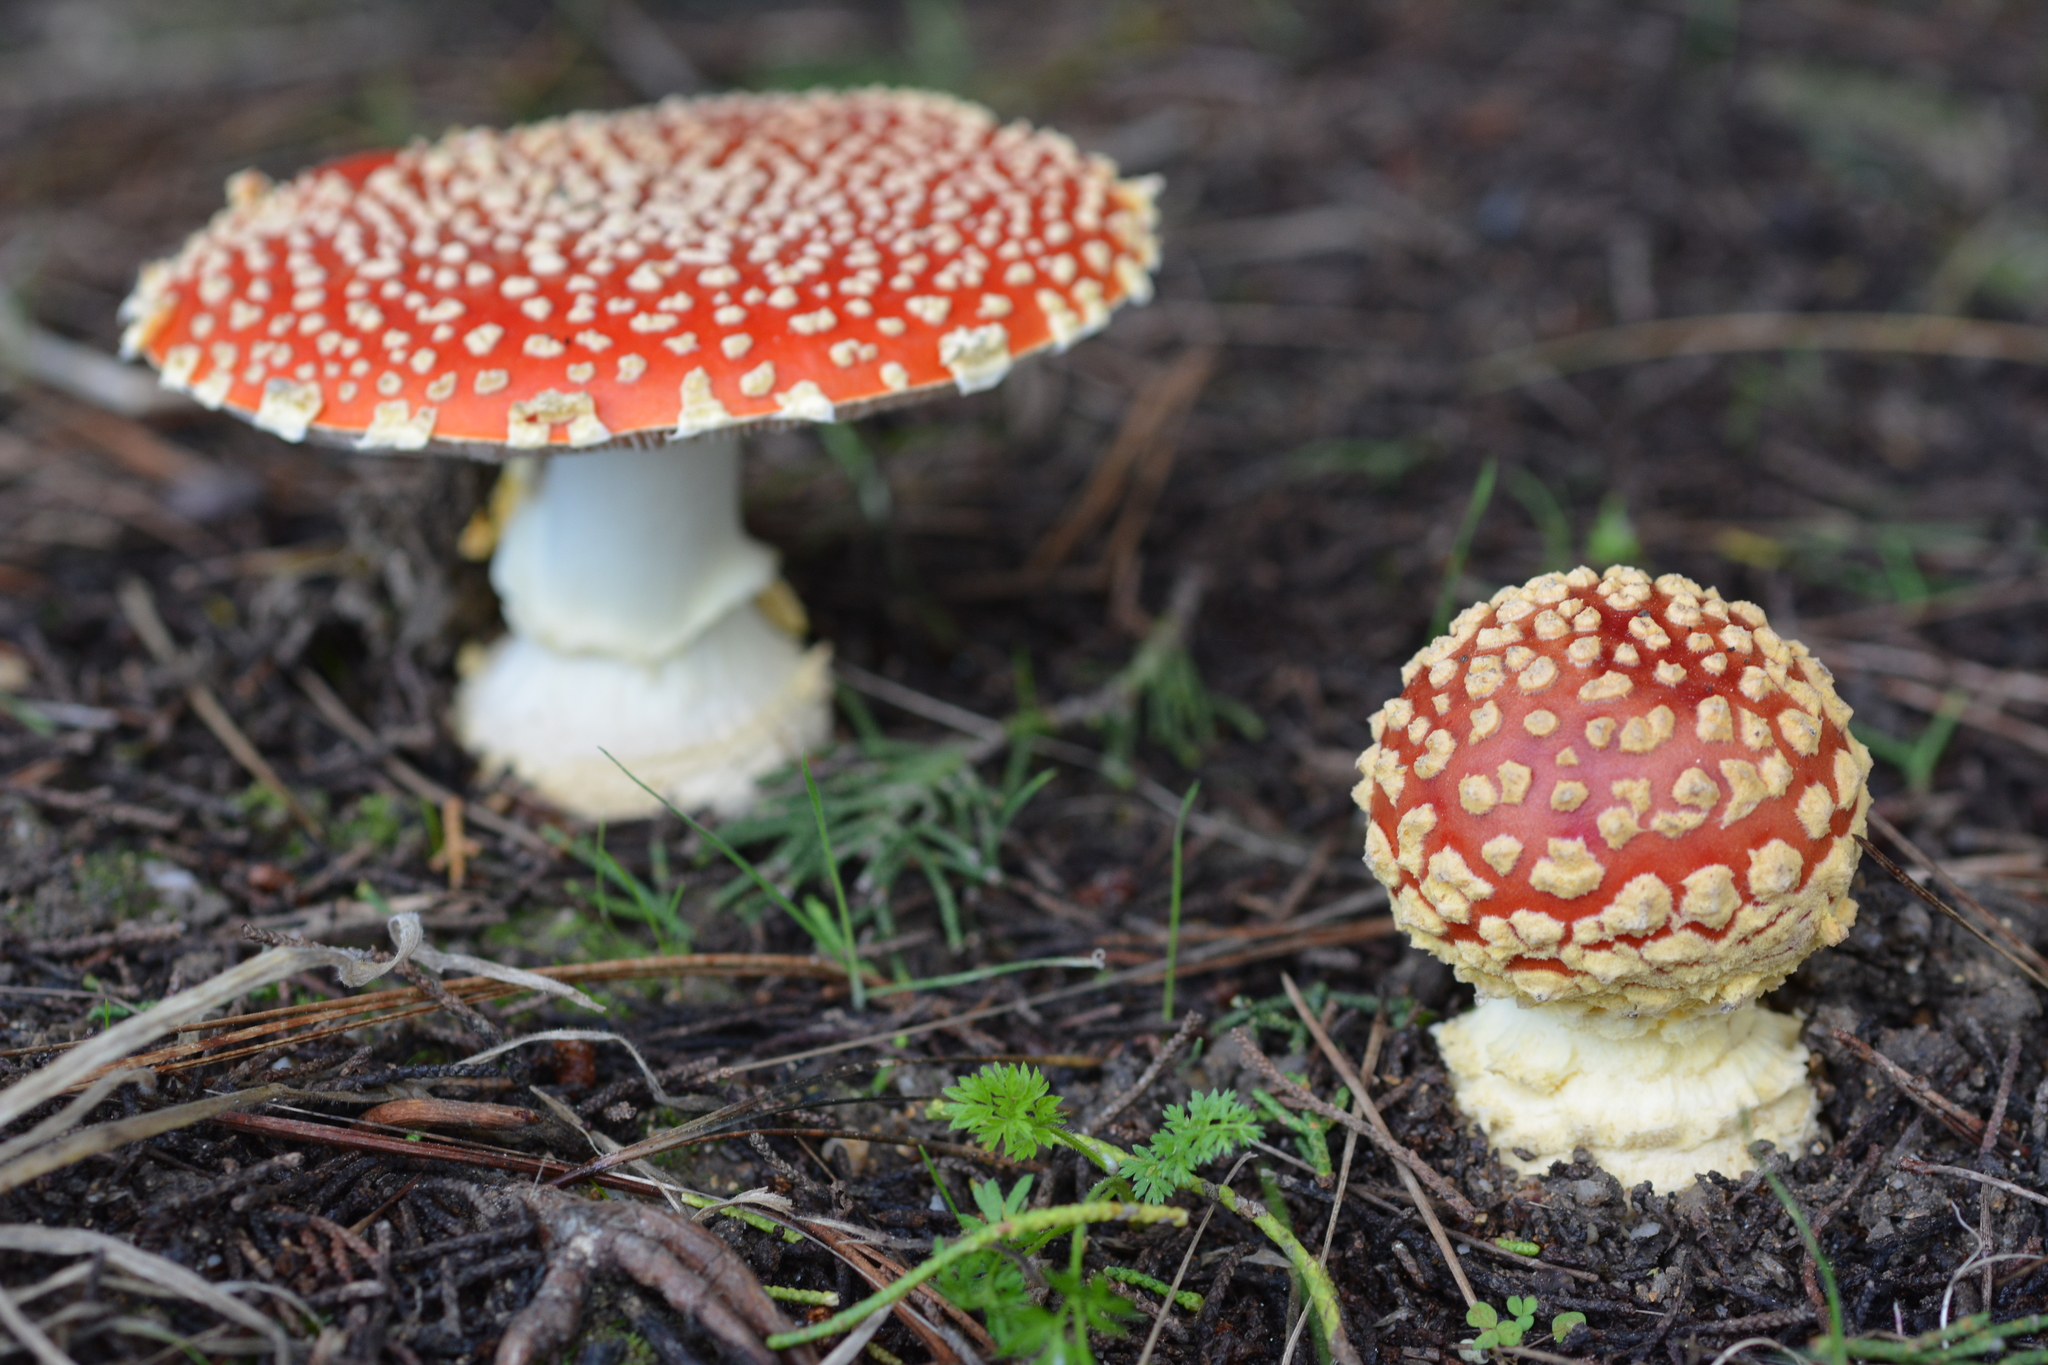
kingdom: Fungi
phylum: Basidiomycota
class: Agaricomycetes
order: Agaricales
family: Amanitaceae
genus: Amanita
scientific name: Amanita muscaria
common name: Fly agaric
